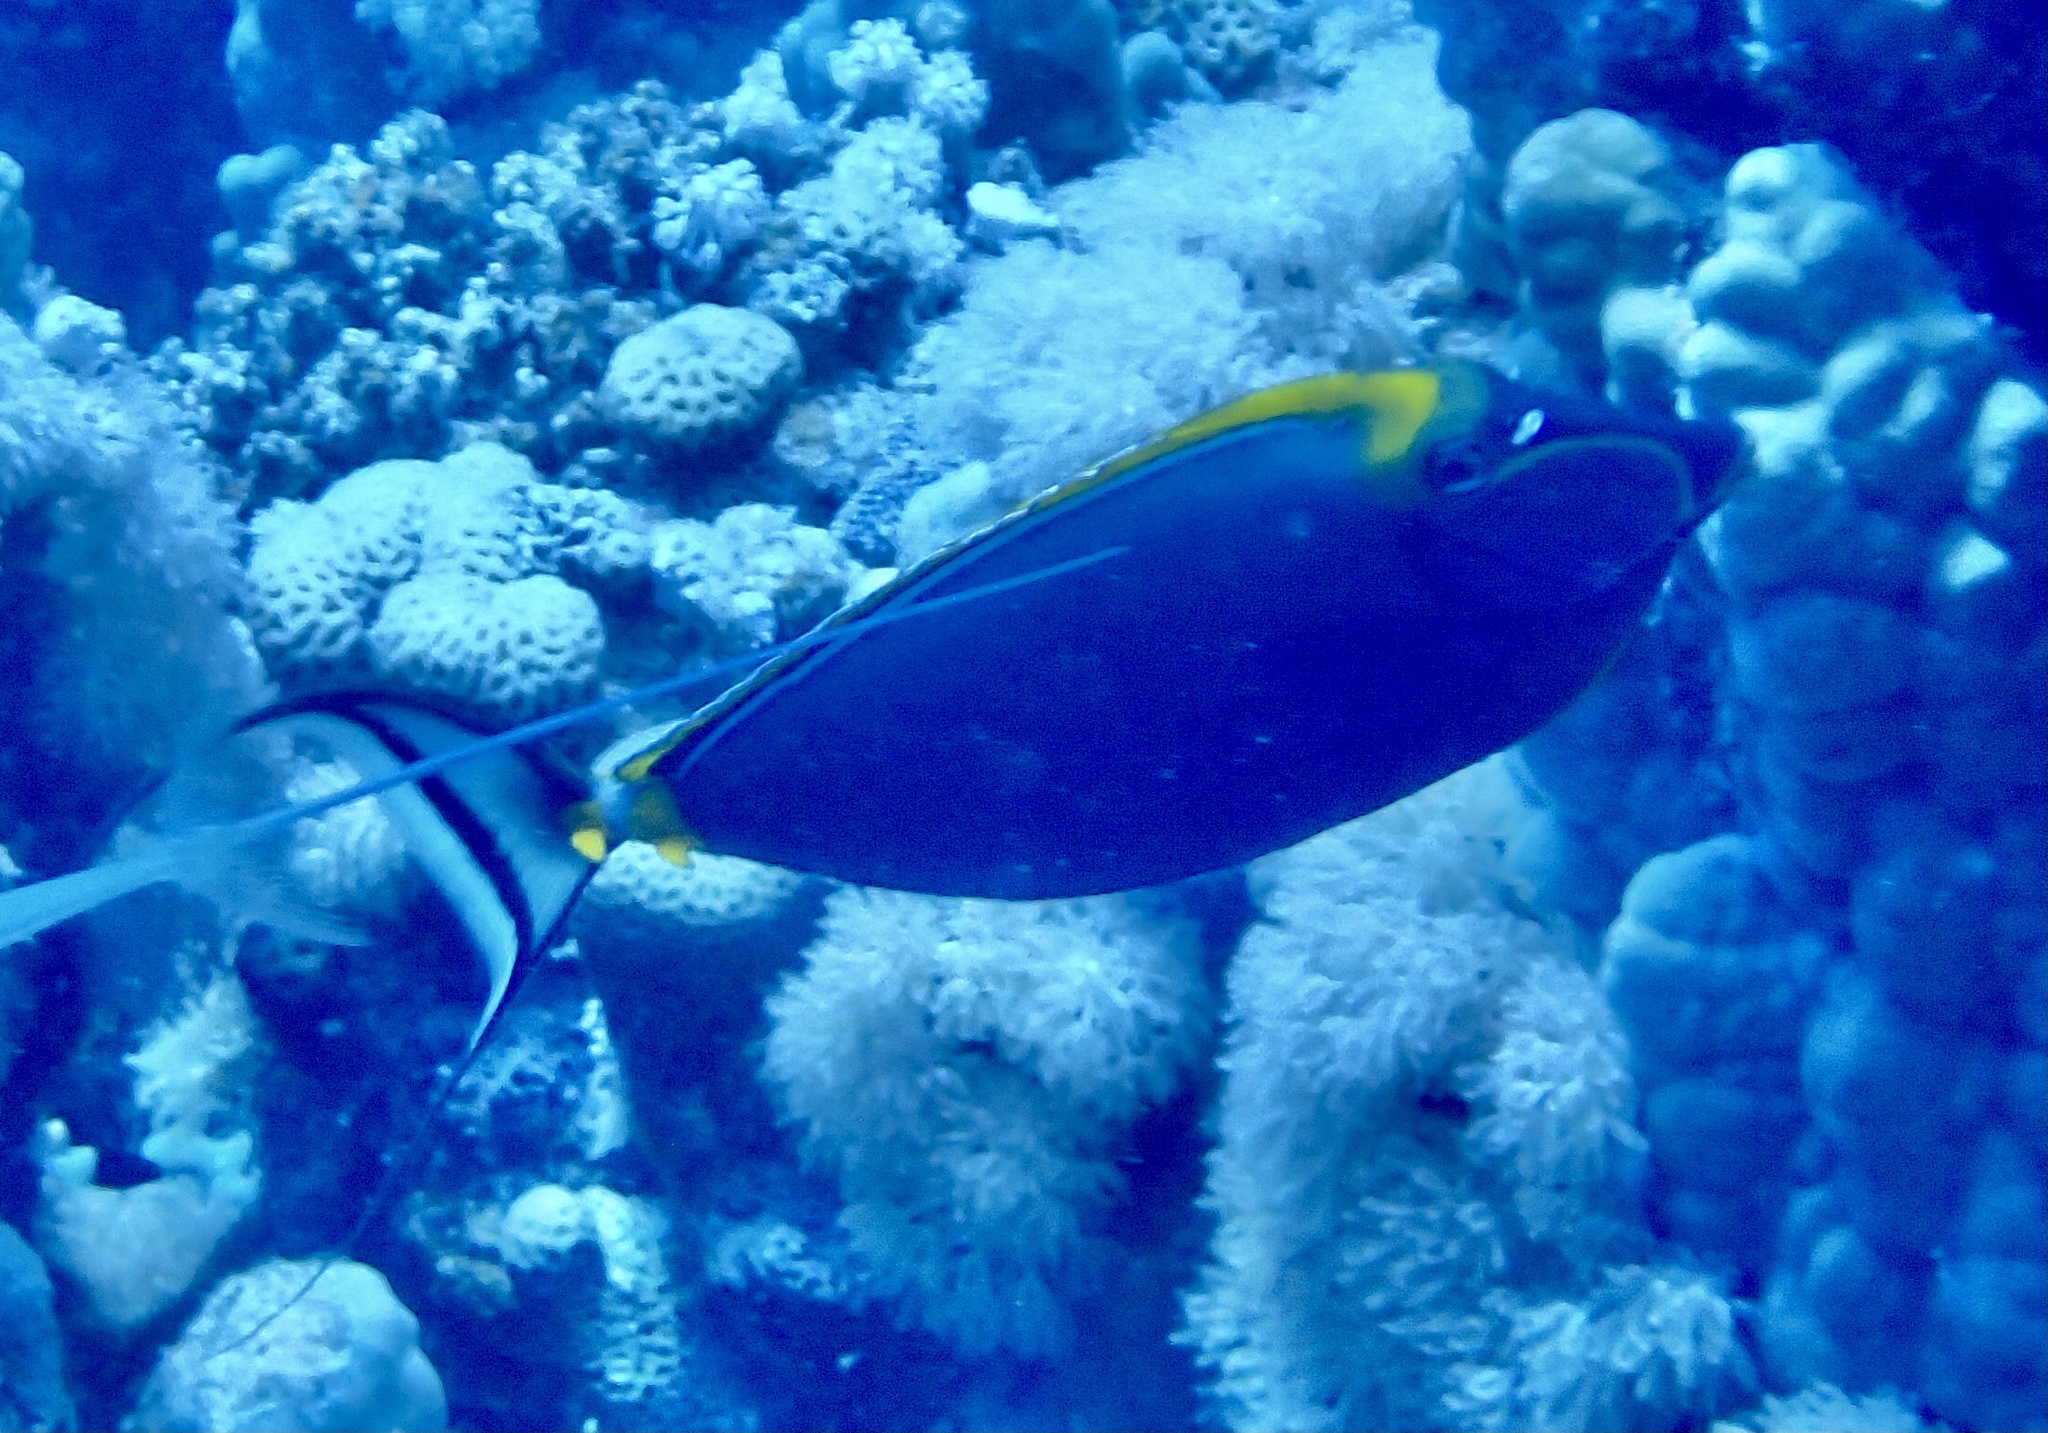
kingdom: Animalia
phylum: Chordata
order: Perciformes
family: Acanthuridae
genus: Naso
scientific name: Naso elegans
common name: Orangespine unicornfish
